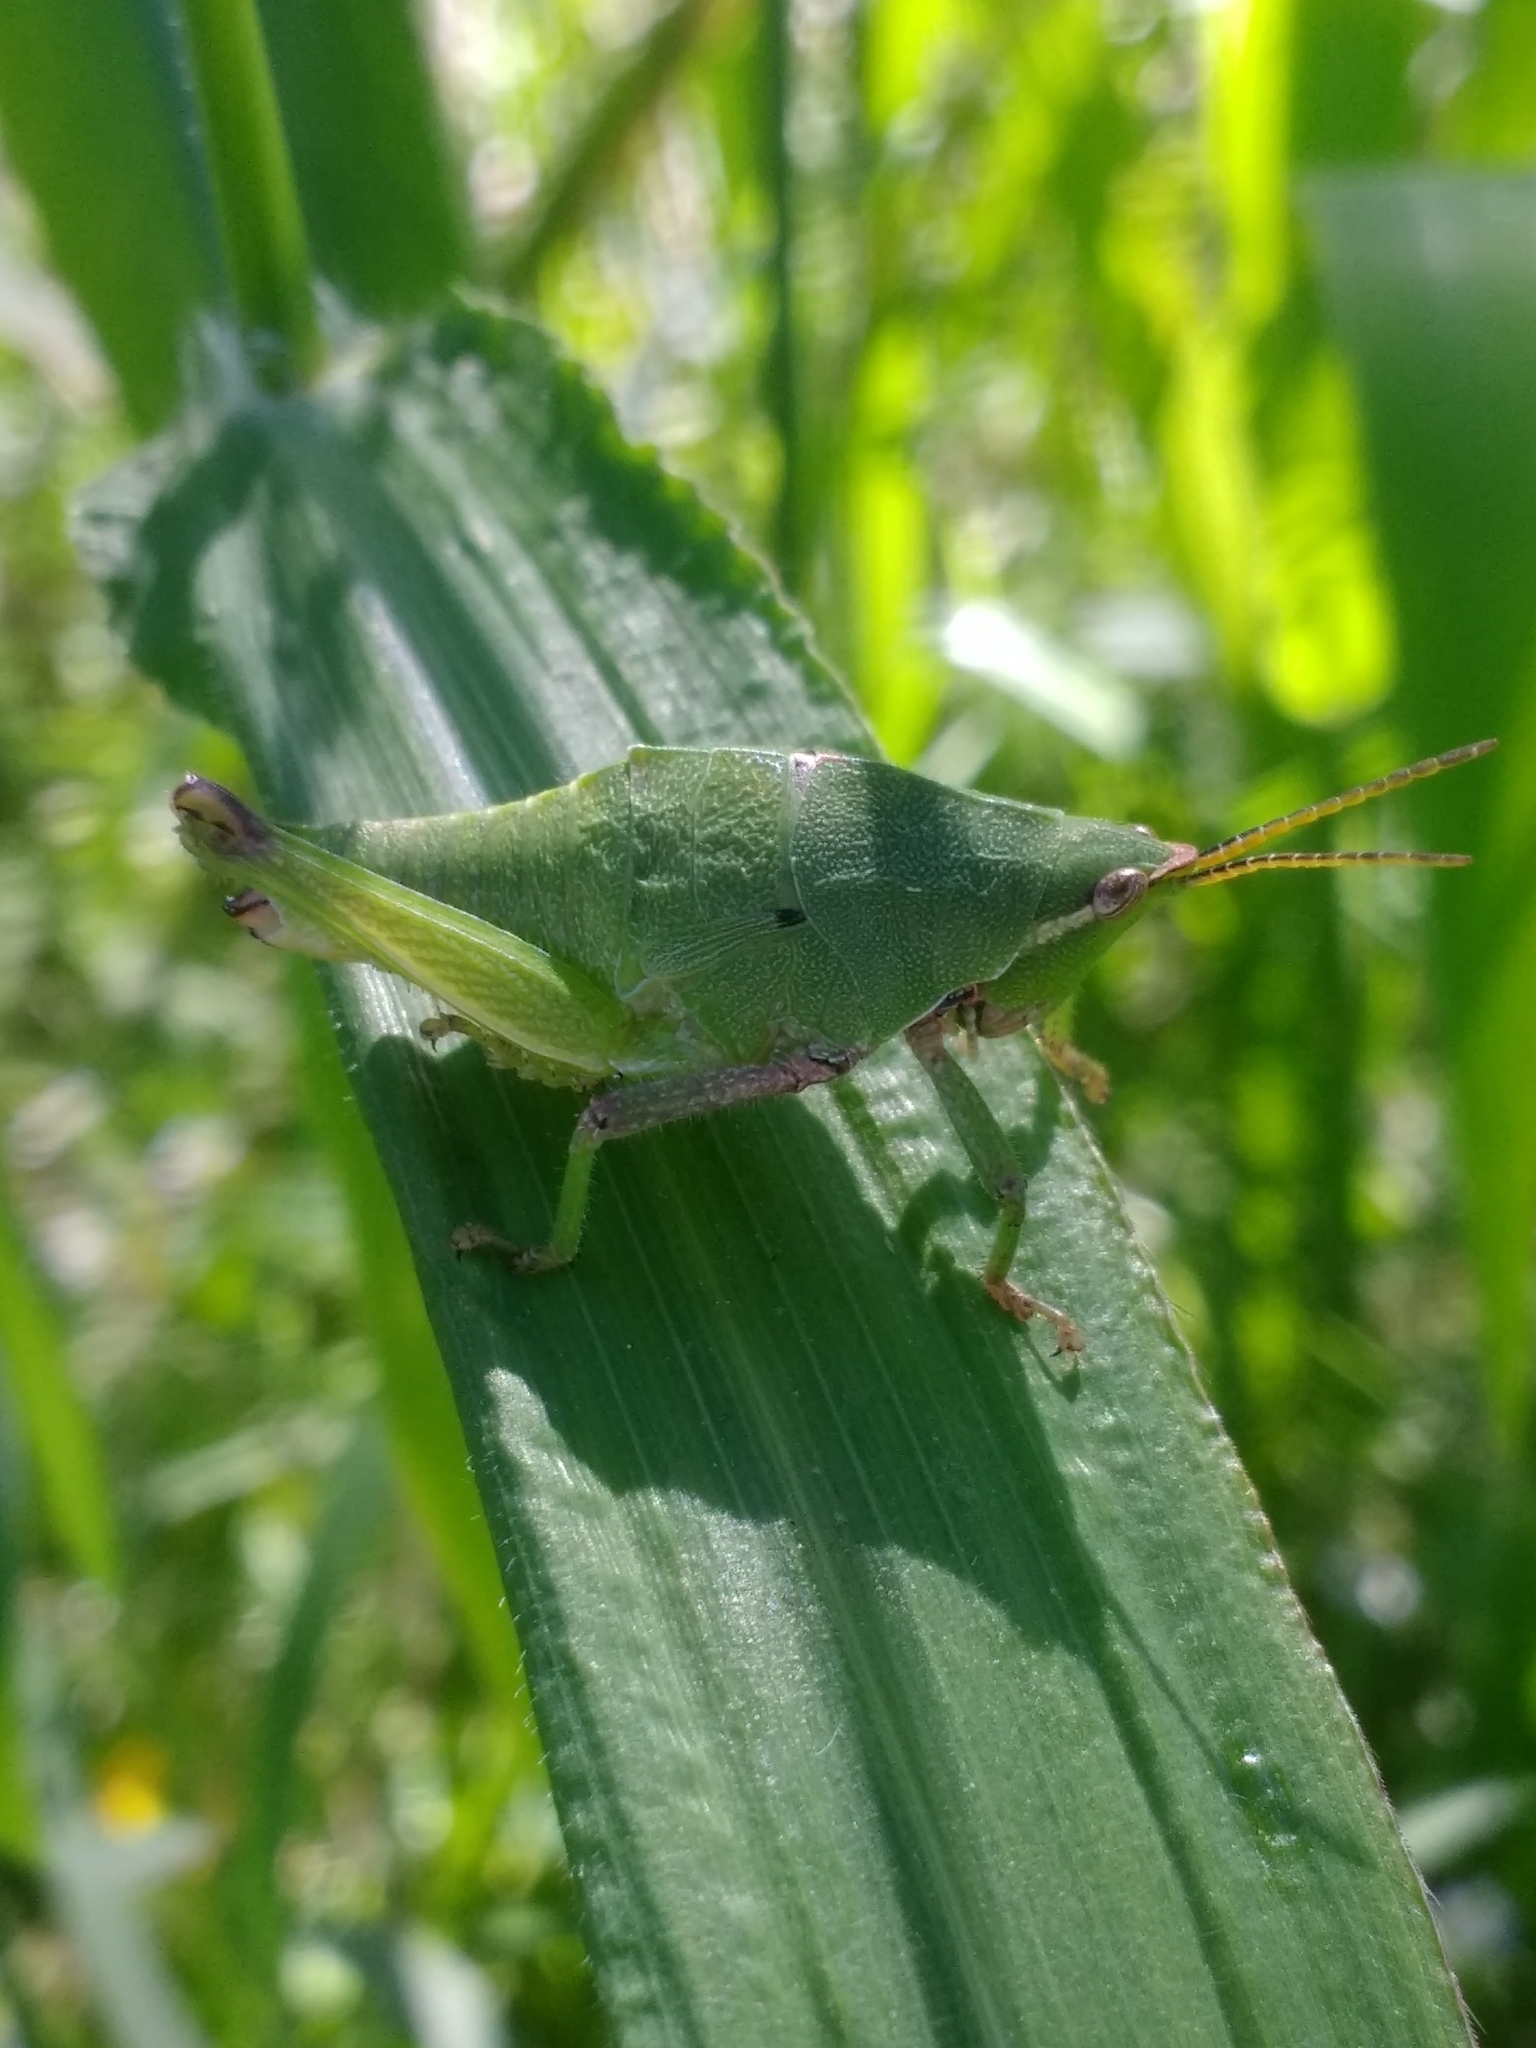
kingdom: Animalia
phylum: Arthropoda
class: Insecta
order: Orthoptera
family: Pyrgomorphidae
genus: Sphenarium
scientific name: Sphenarium purpurascens
